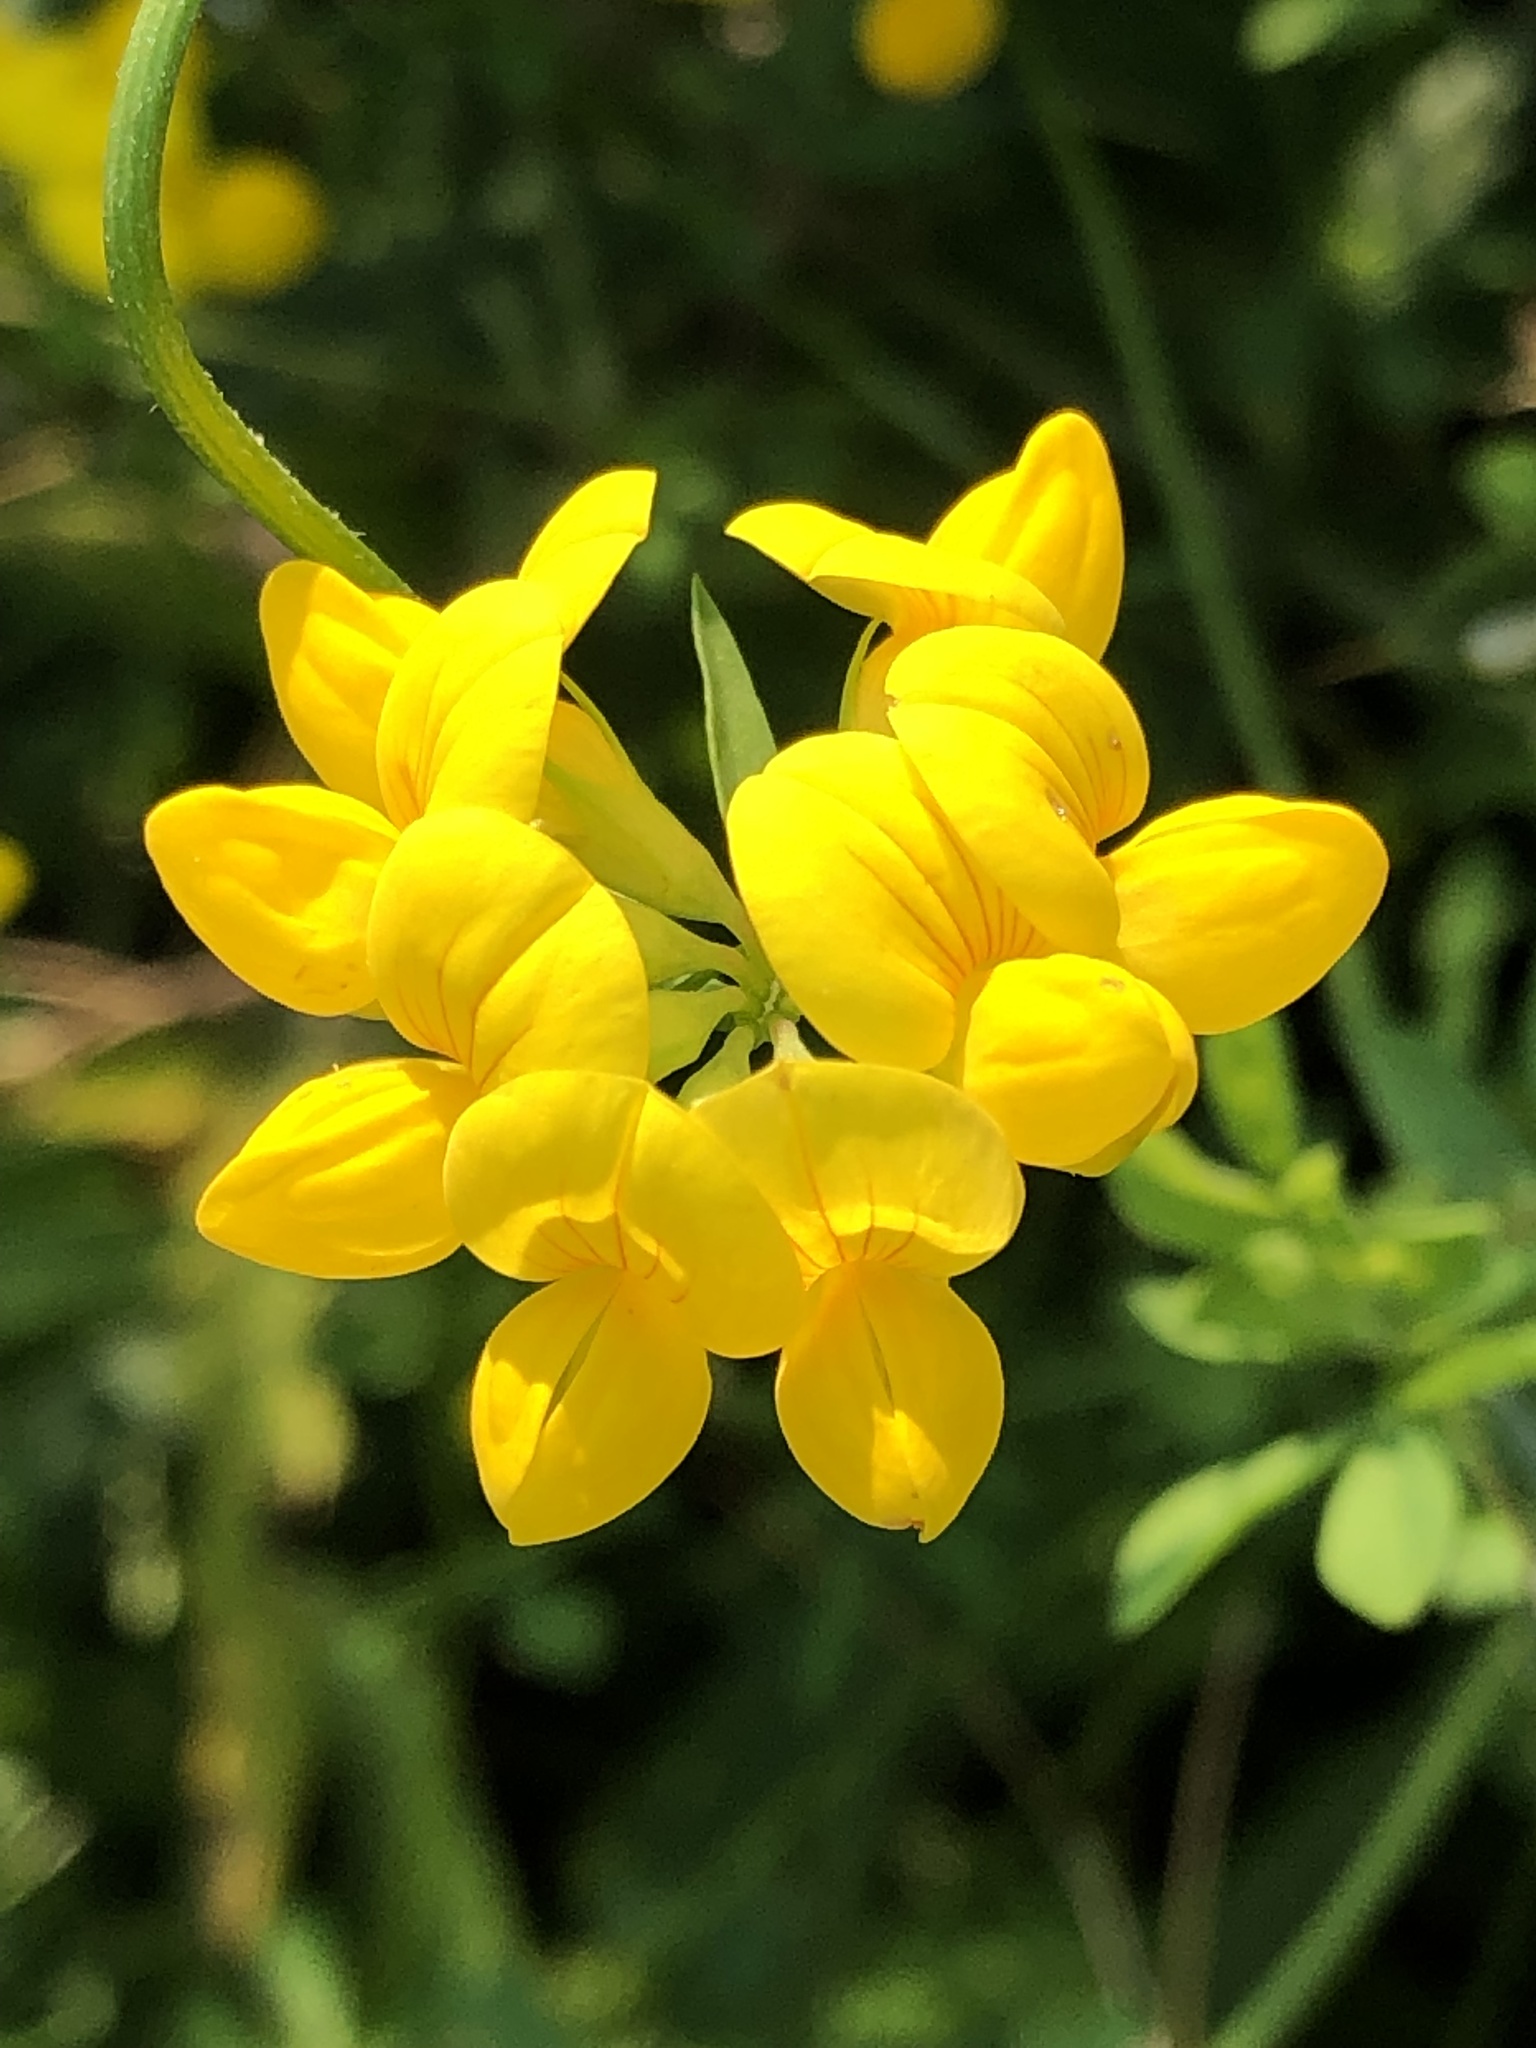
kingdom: Plantae
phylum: Tracheophyta
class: Magnoliopsida
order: Fabales
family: Fabaceae
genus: Lotus
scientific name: Lotus corniculatus
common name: Common bird's-foot-trefoil
